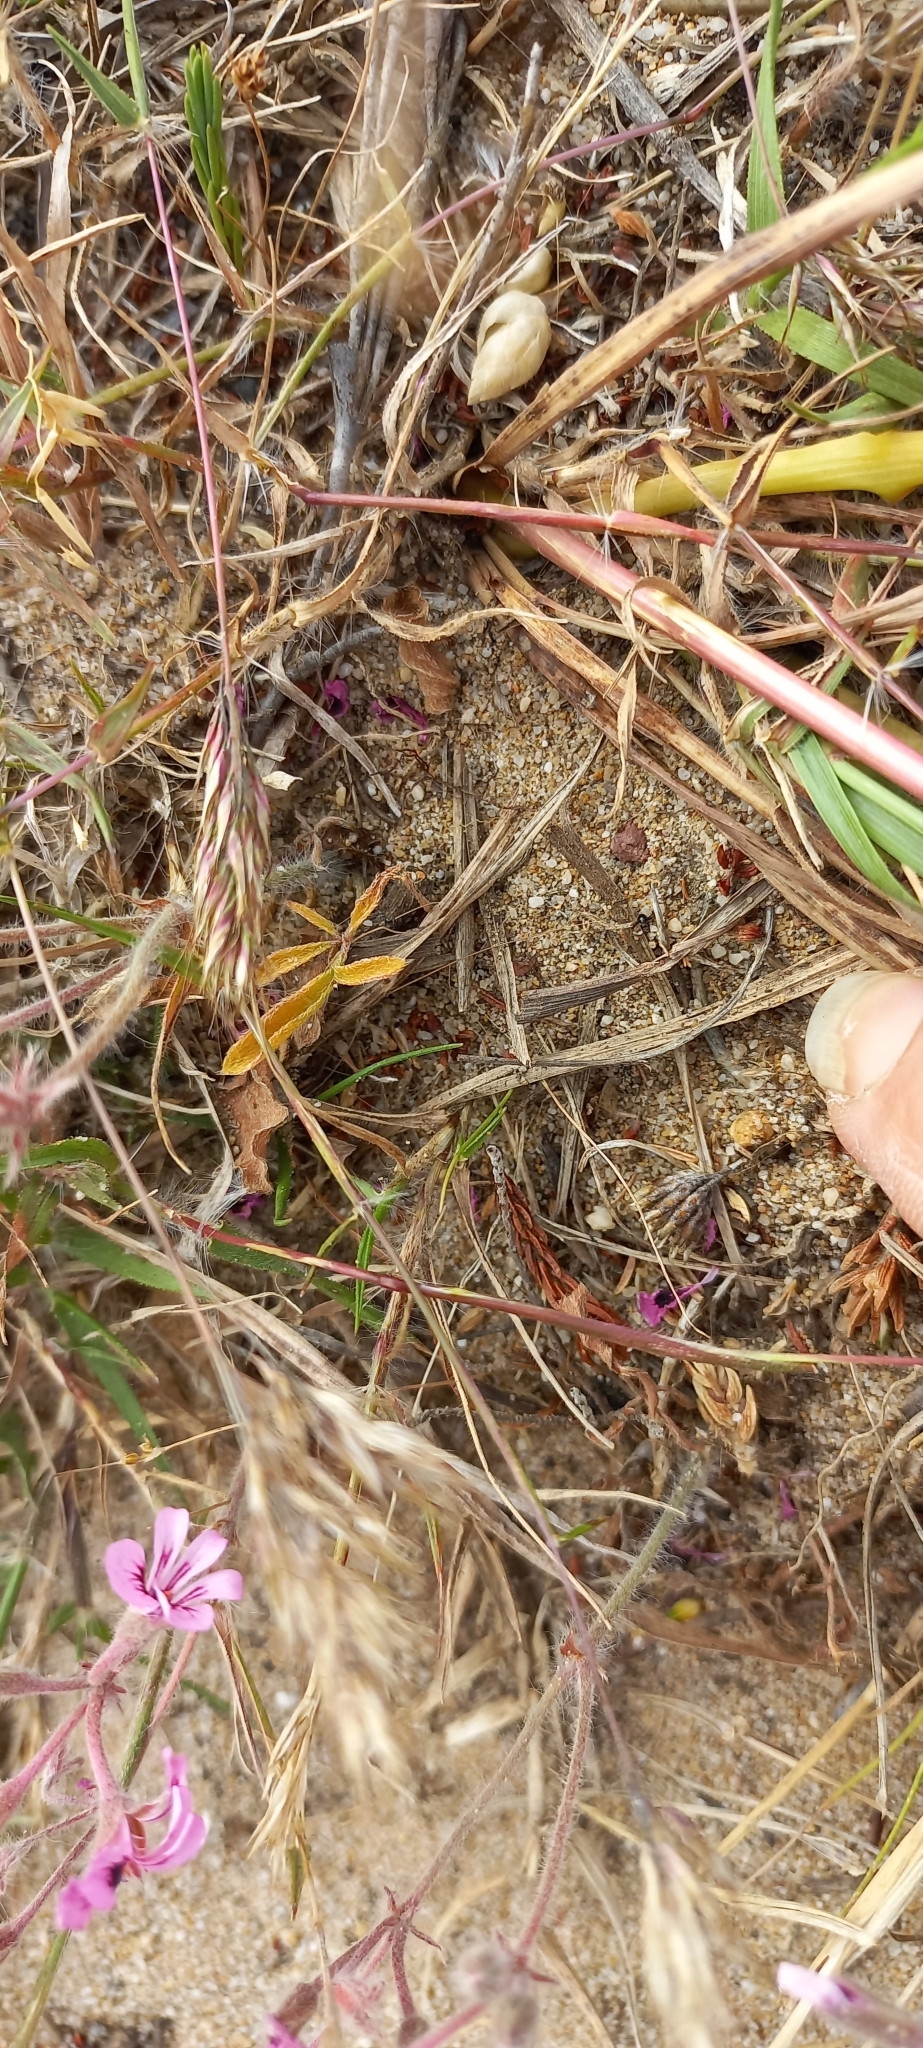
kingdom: Plantae
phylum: Tracheophyta
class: Magnoliopsida
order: Geraniales
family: Geraniaceae
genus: Pelargonium
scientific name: Pelargonium psammophilum
